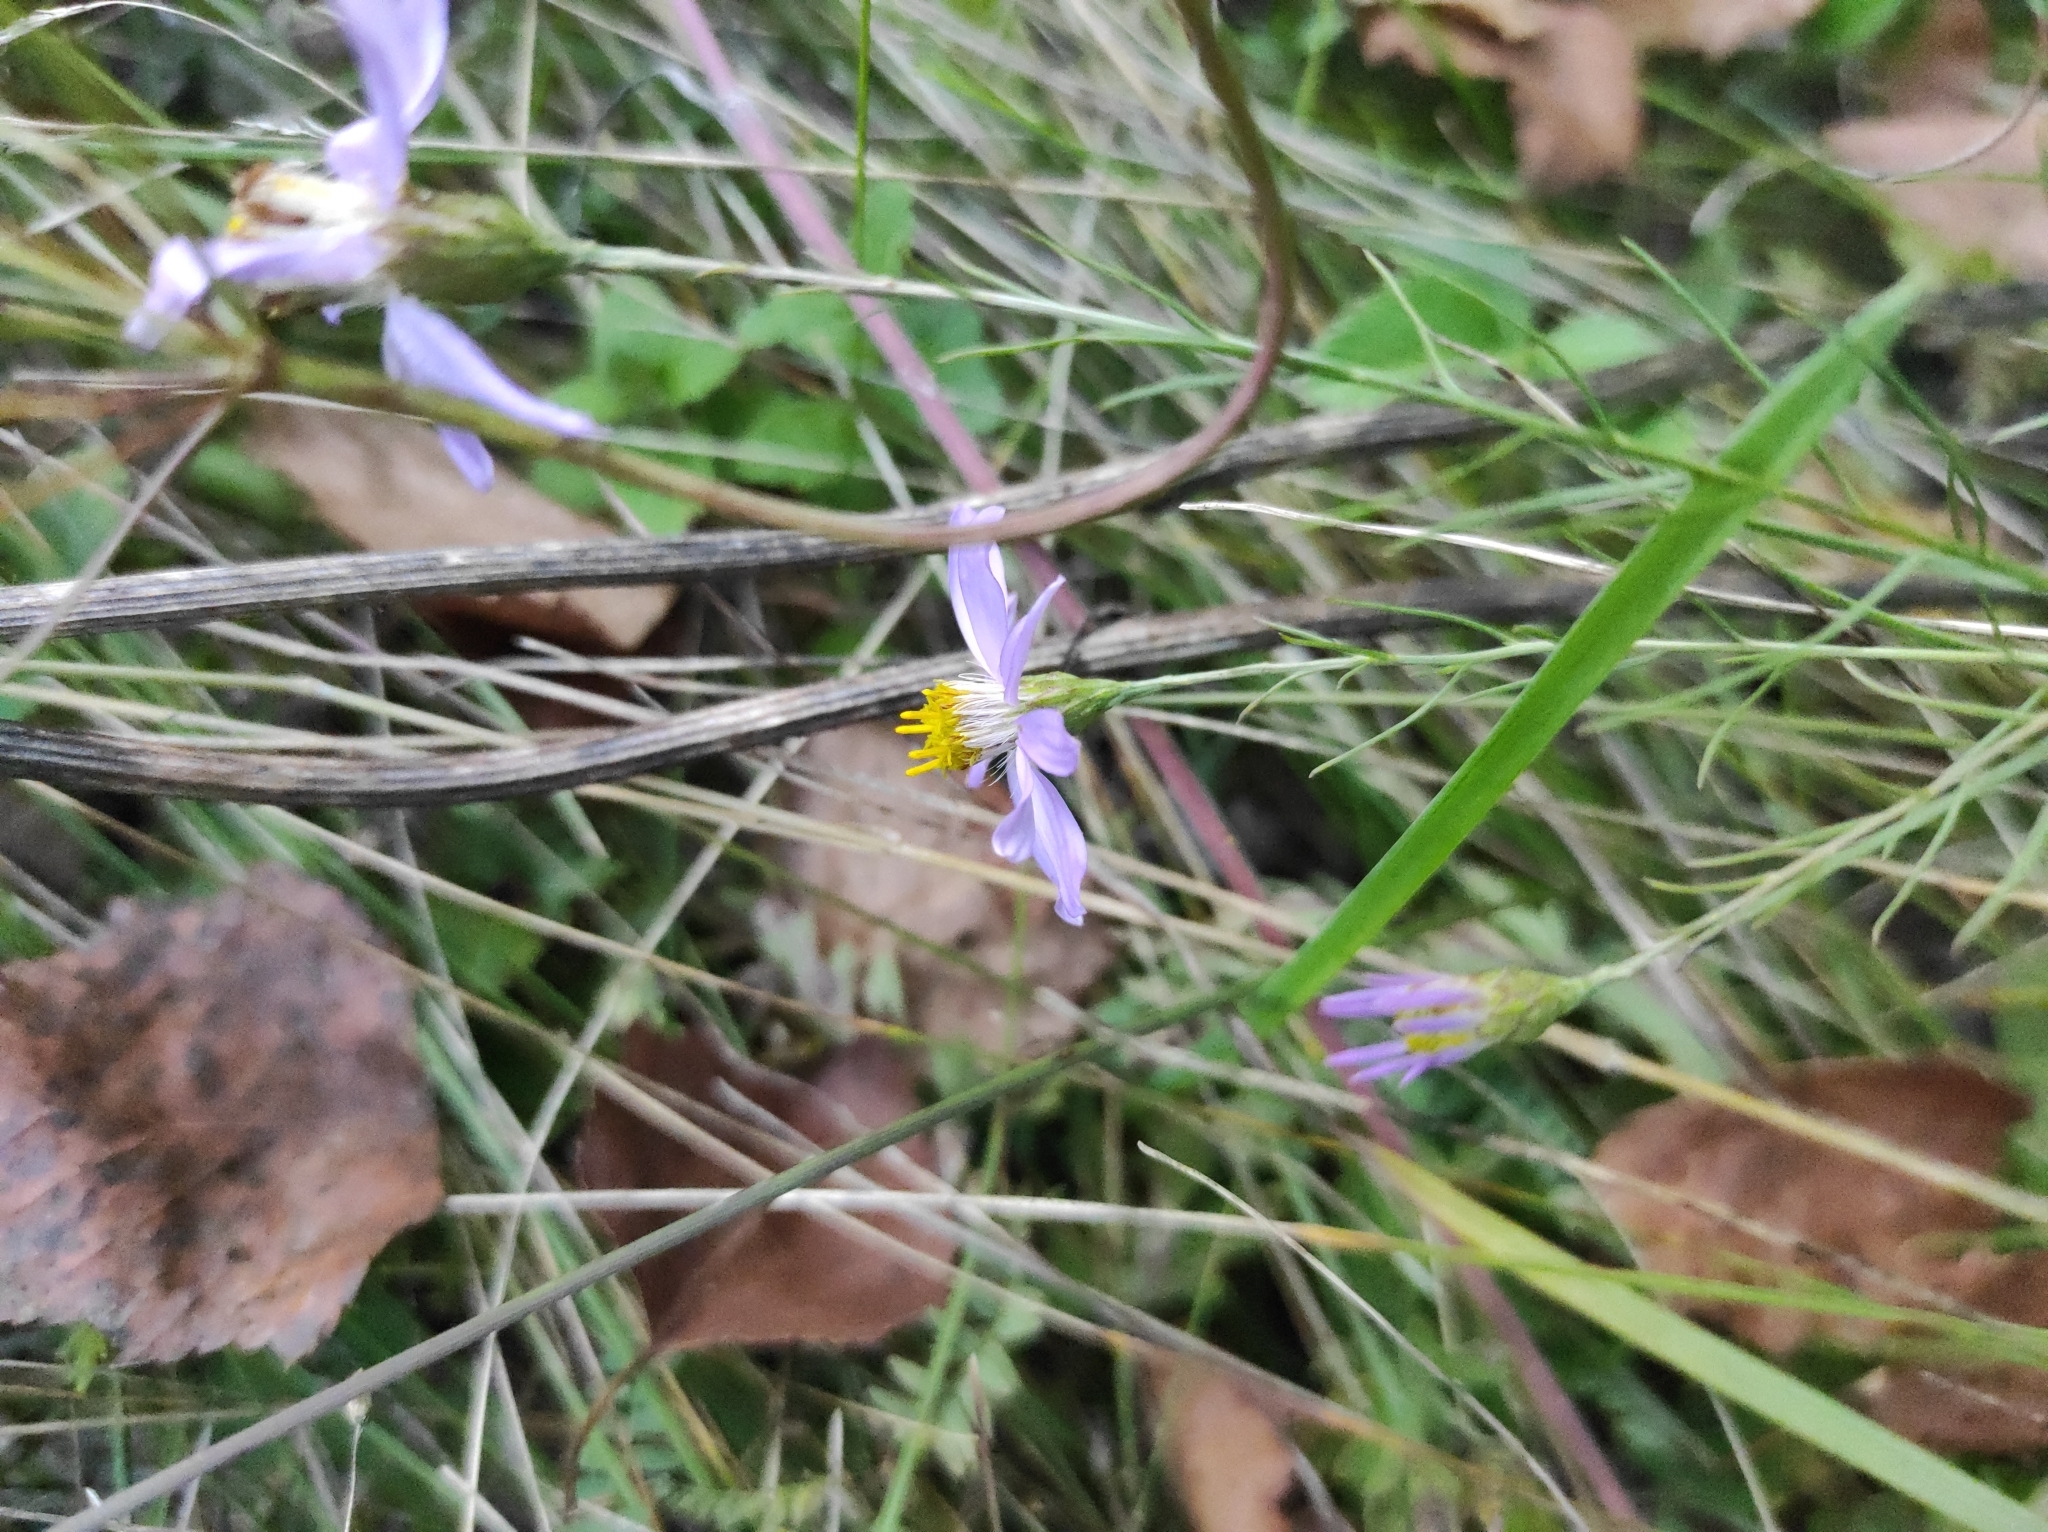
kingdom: Plantae
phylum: Tracheophyta
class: Magnoliopsida
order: Asterales
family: Asteraceae
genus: Galatella
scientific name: Galatella angustissima
